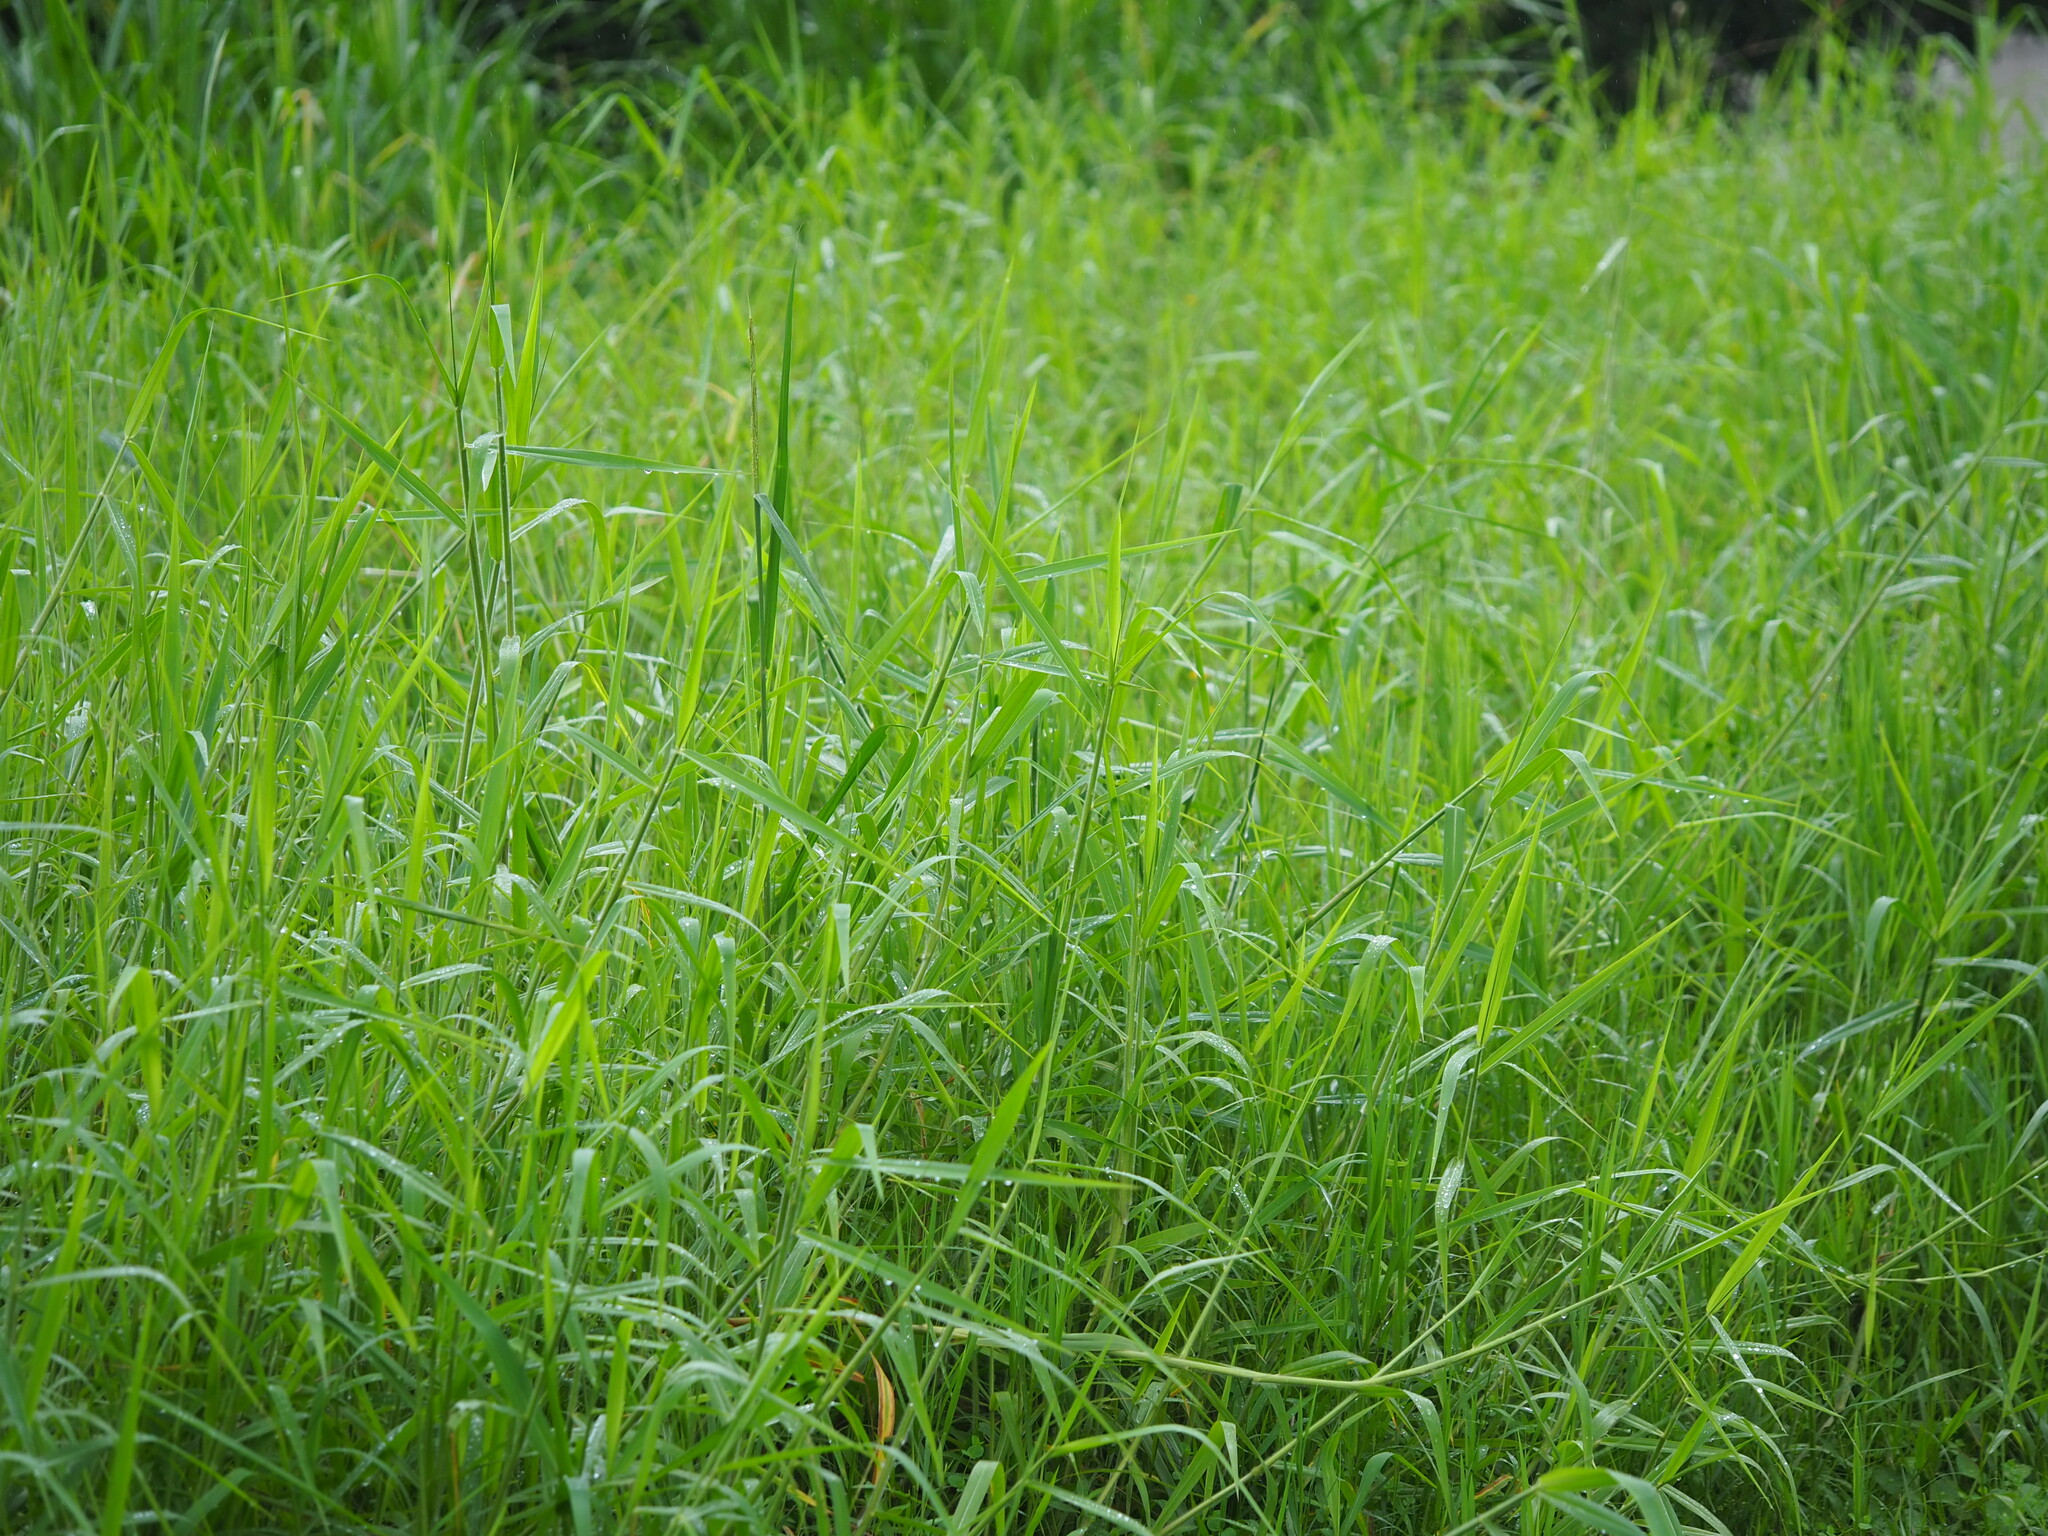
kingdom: Plantae
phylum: Tracheophyta
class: Liliopsida
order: Poales
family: Poaceae
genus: Urochloa
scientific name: Urochloa mutica
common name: Para grass
